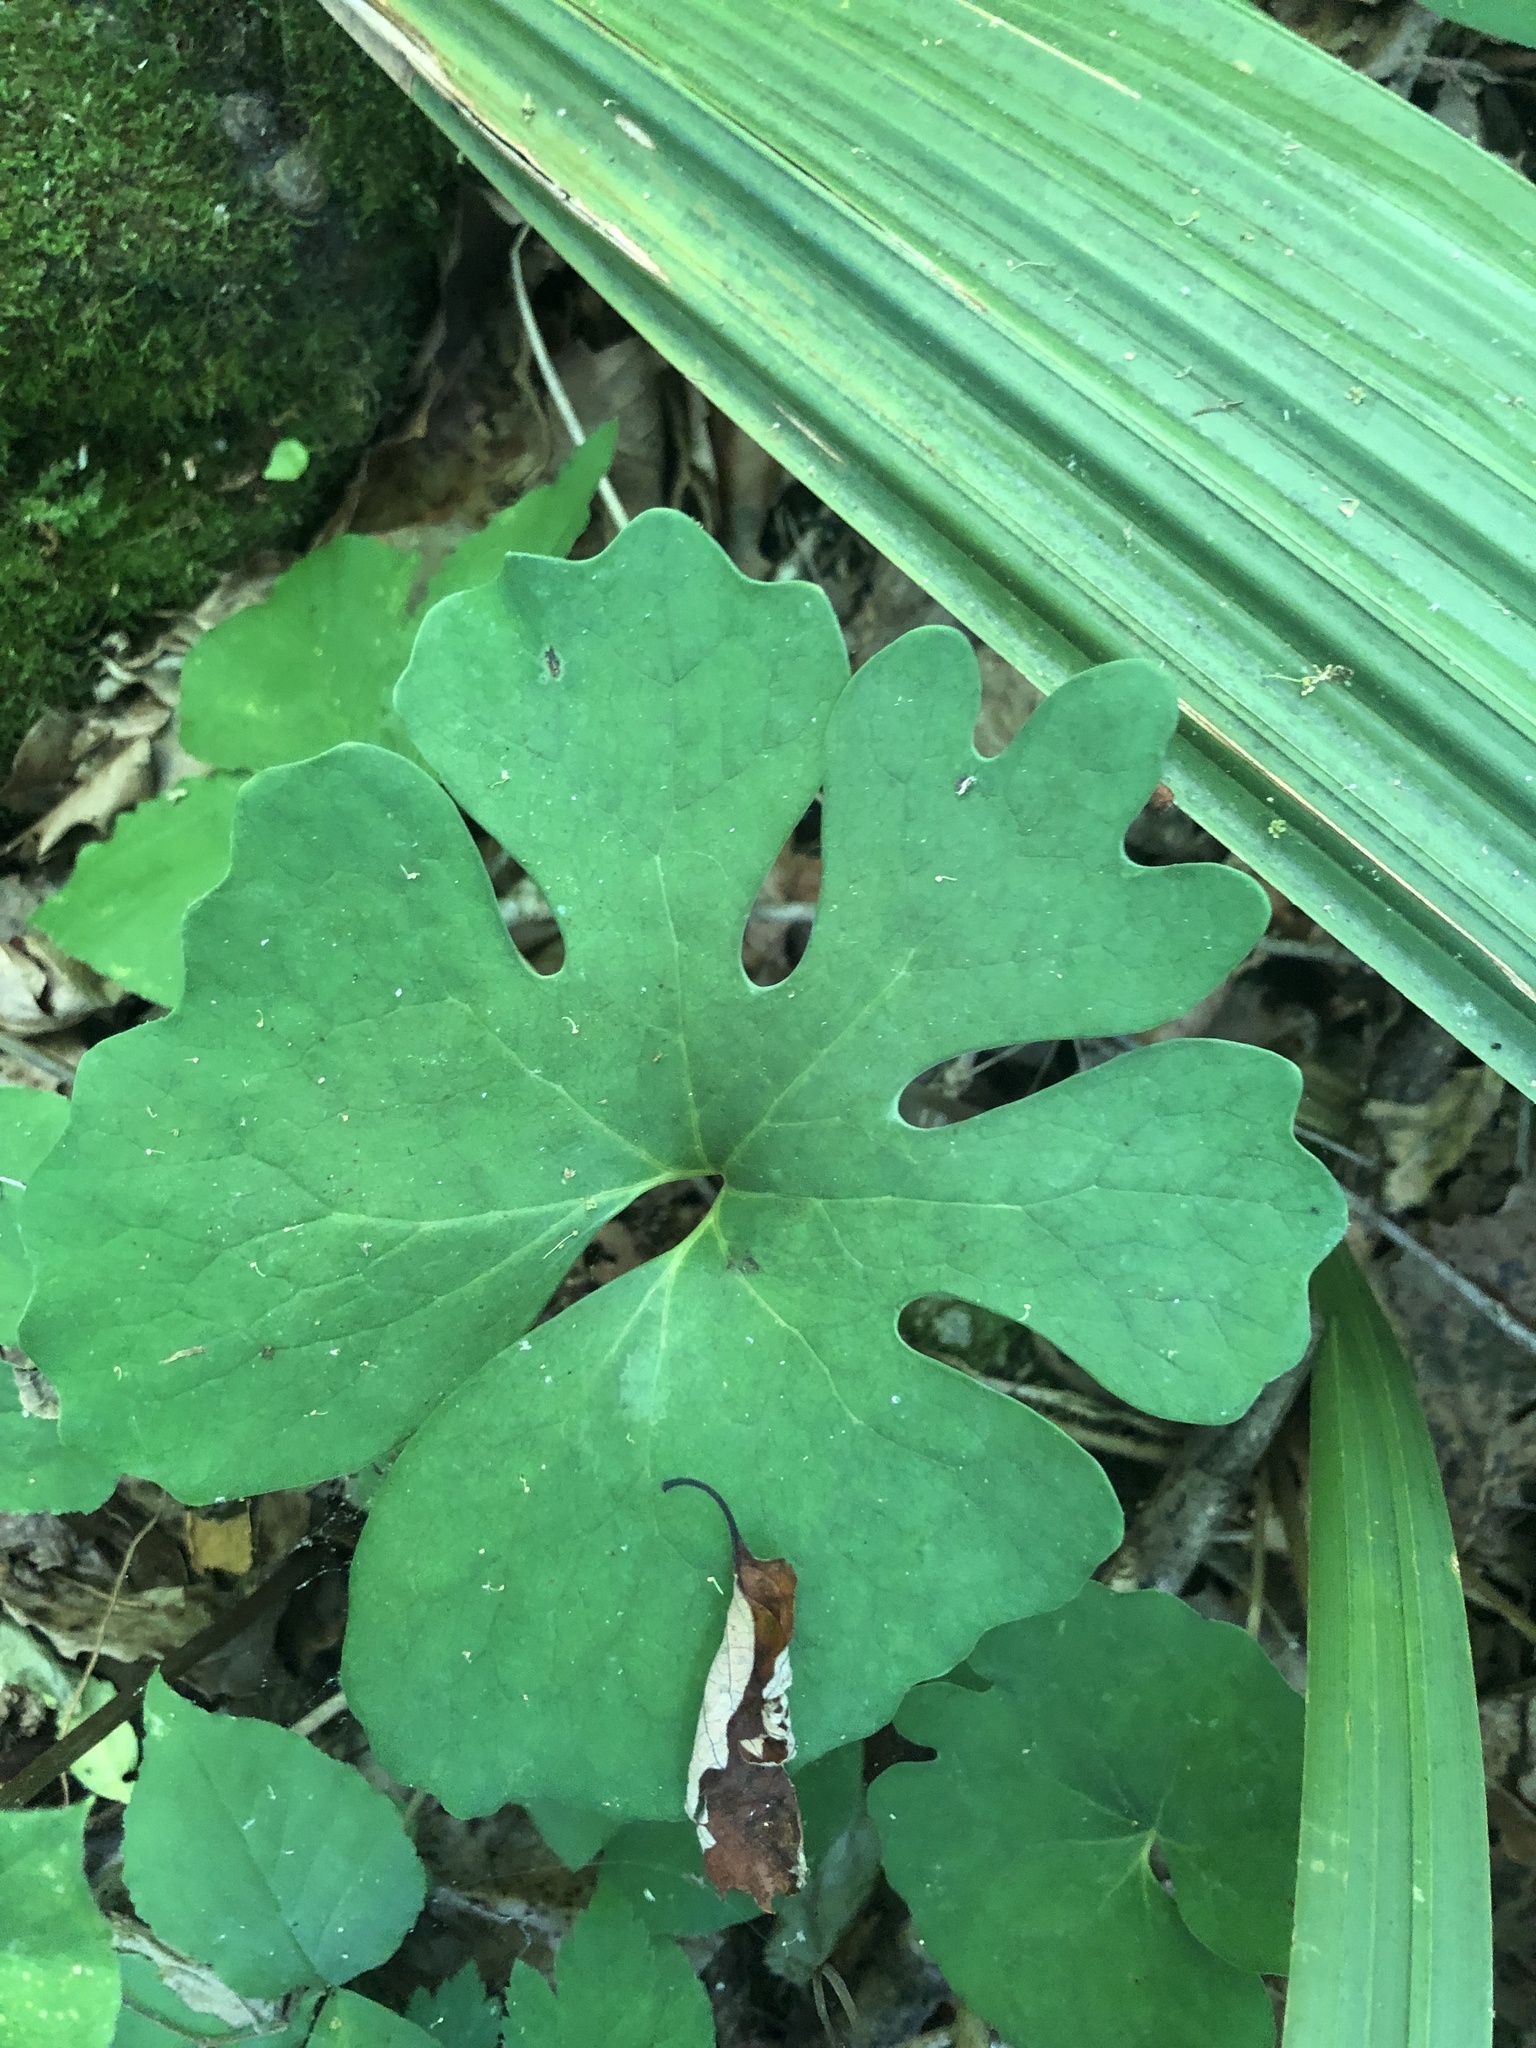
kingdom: Plantae
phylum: Tracheophyta
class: Magnoliopsida
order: Ranunculales
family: Papaveraceae
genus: Sanguinaria
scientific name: Sanguinaria canadensis
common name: Bloodroot
